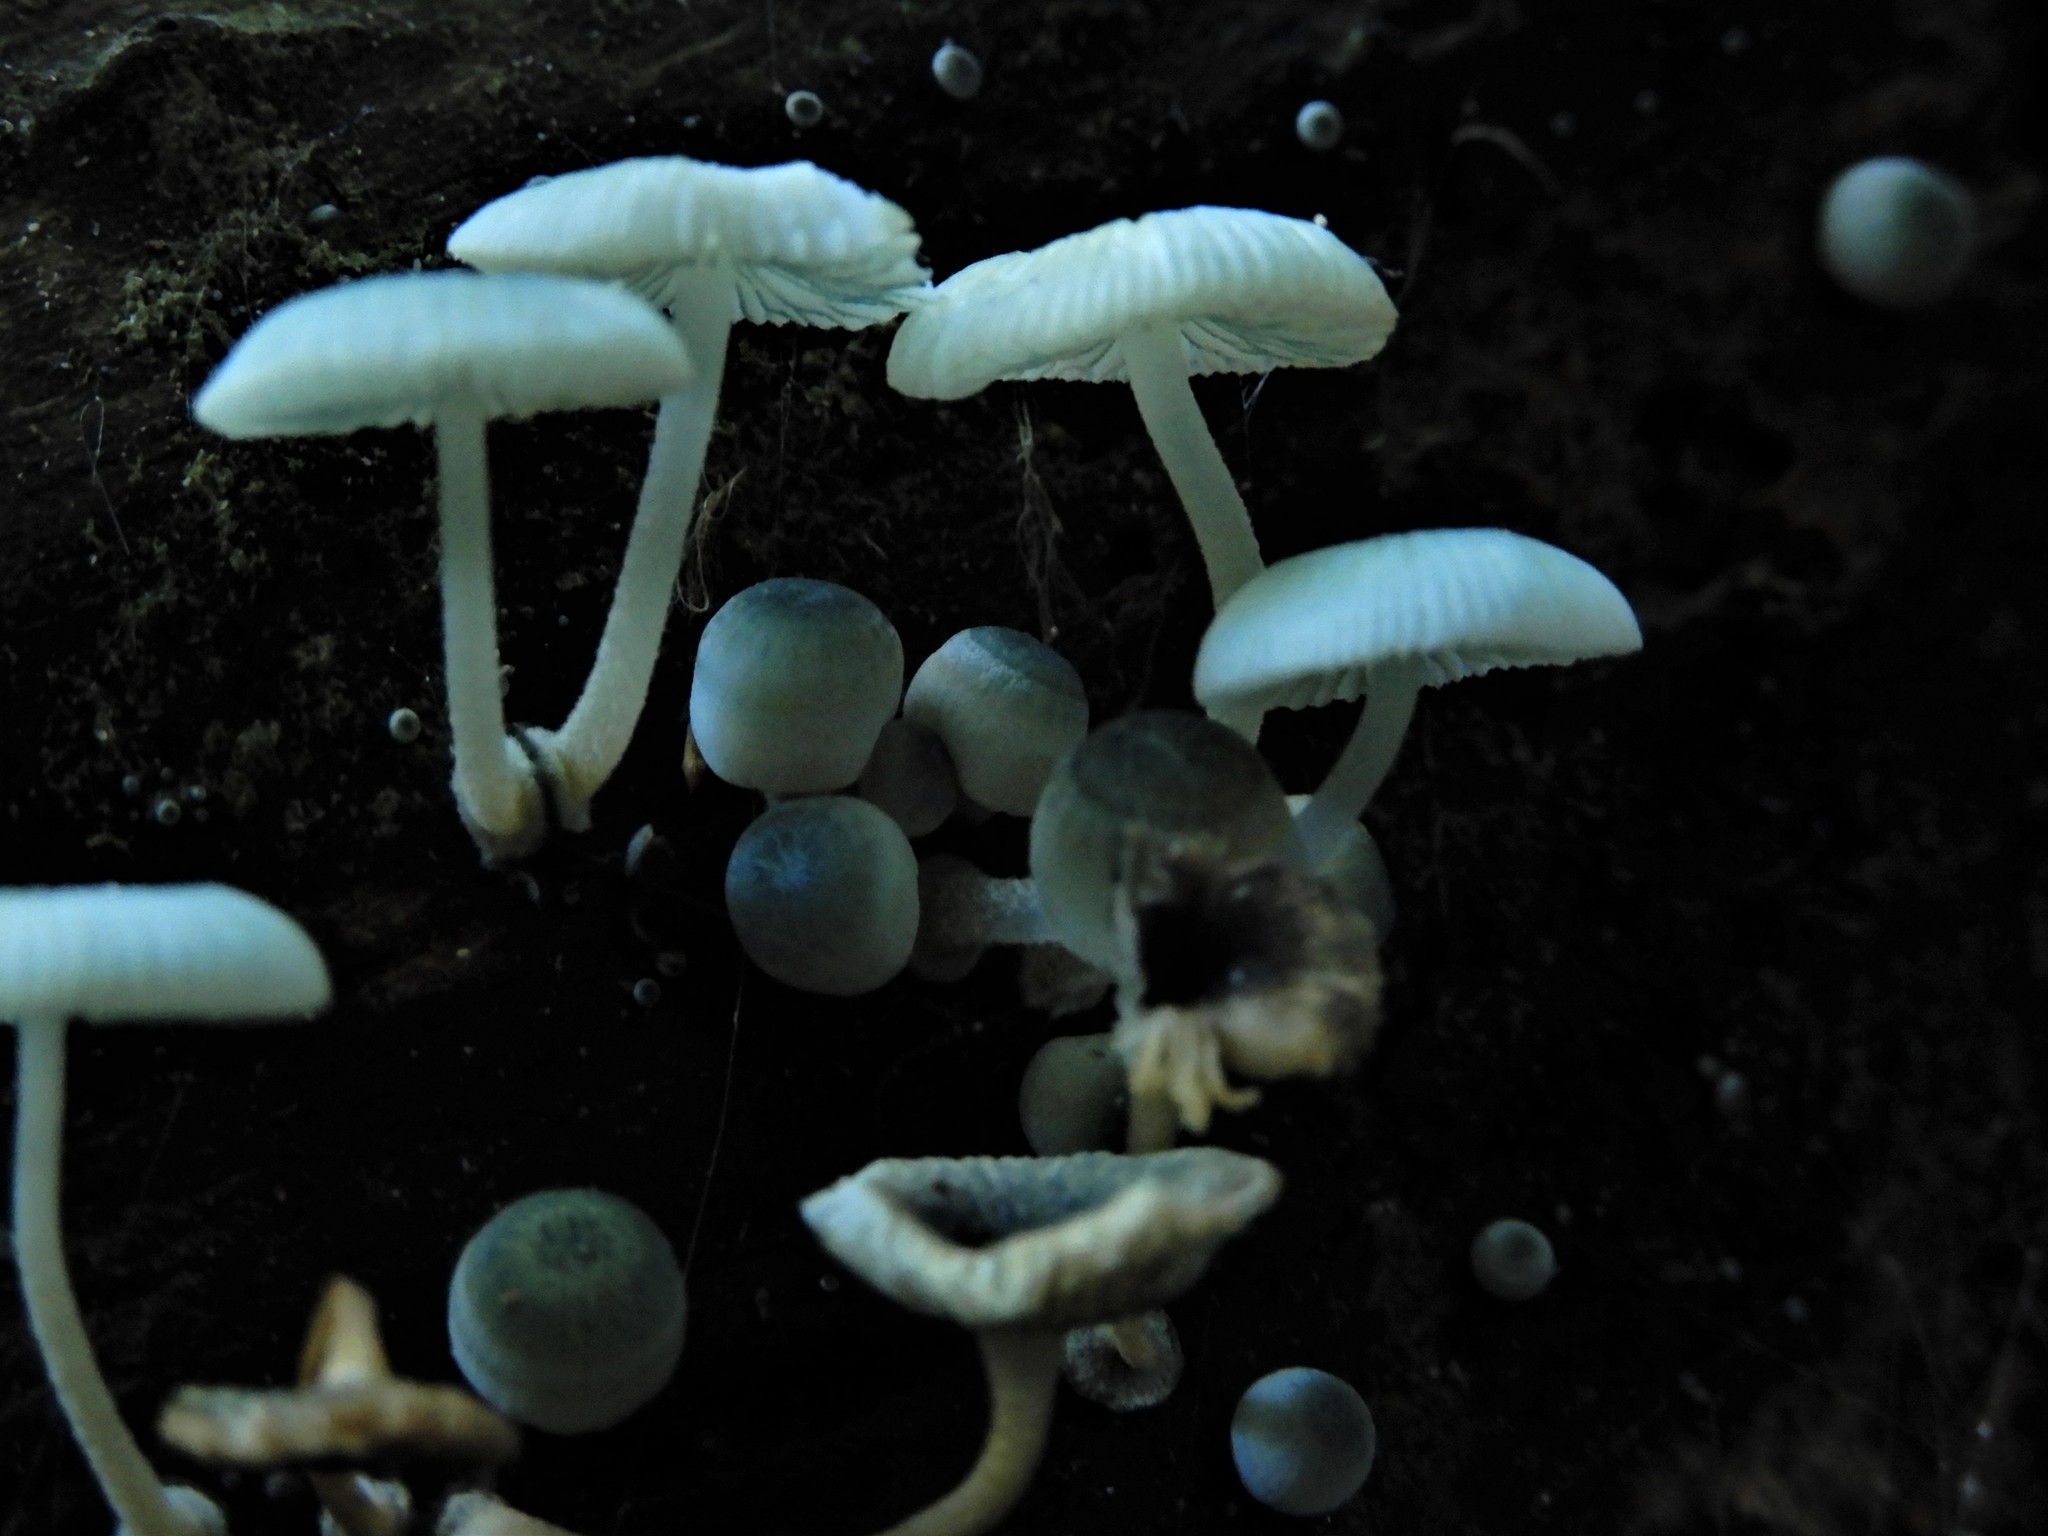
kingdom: Fungi
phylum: Basidiomycota
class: Agaricomycetes
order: Agaricales
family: Mycenaceae
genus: Mycena
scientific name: Mycena interrupta
